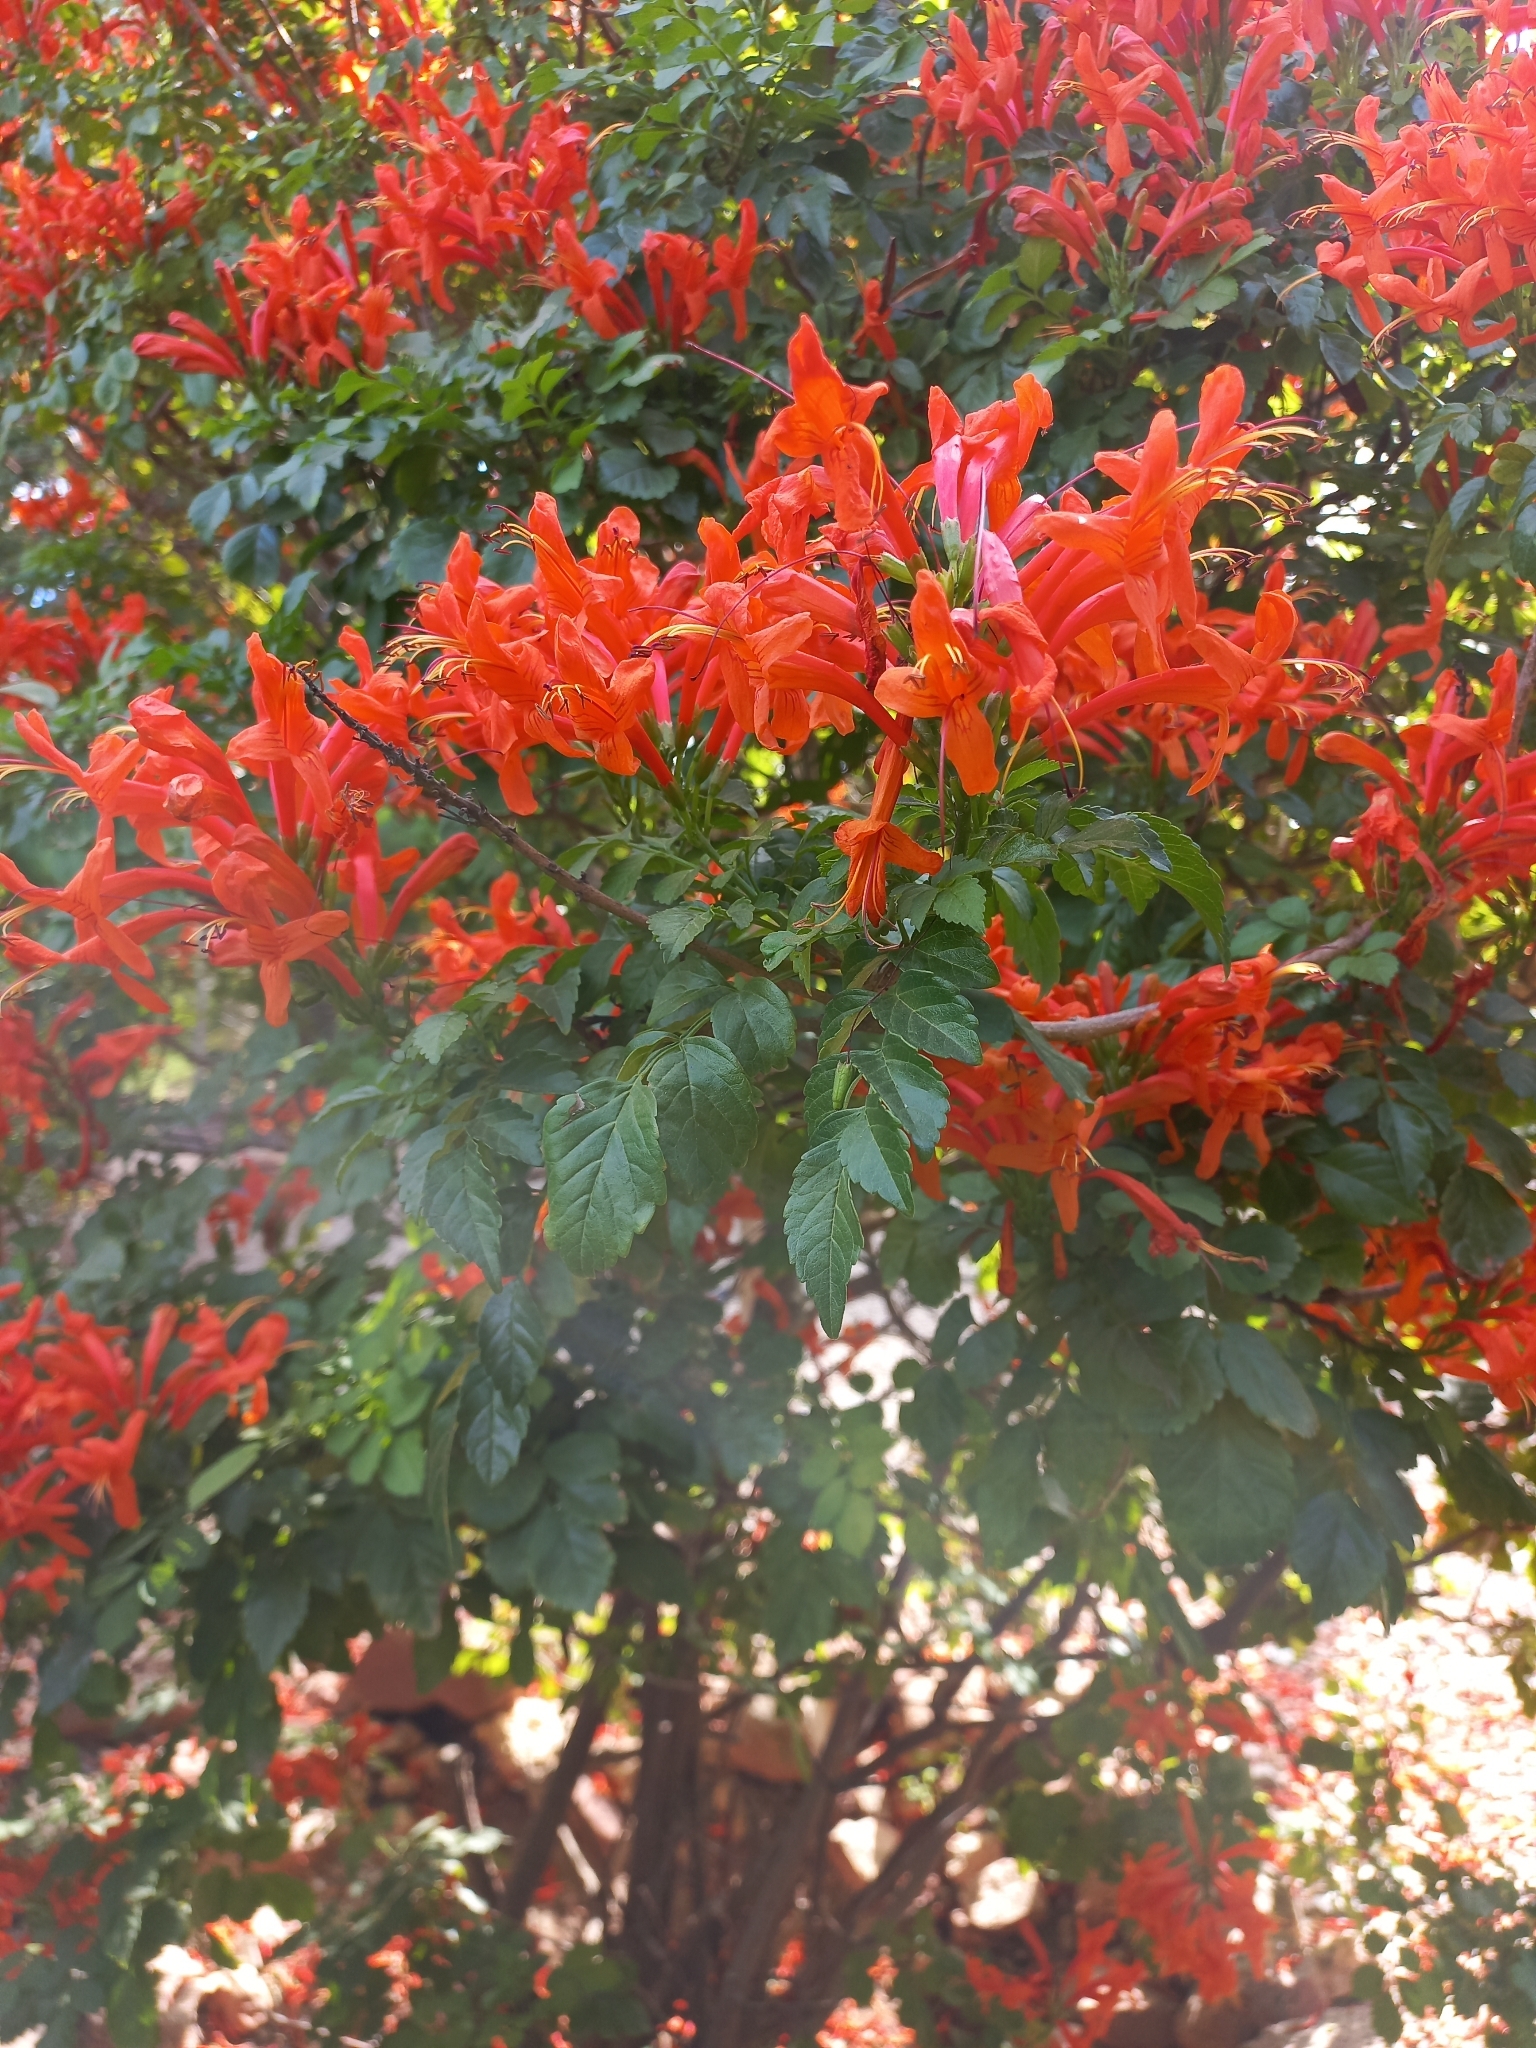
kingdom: Plantae
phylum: Tracheophyta
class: Magnoliopsida
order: Lamiales
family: Bignoniaceae
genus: Tecomaria
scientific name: Tecomaria capensis
